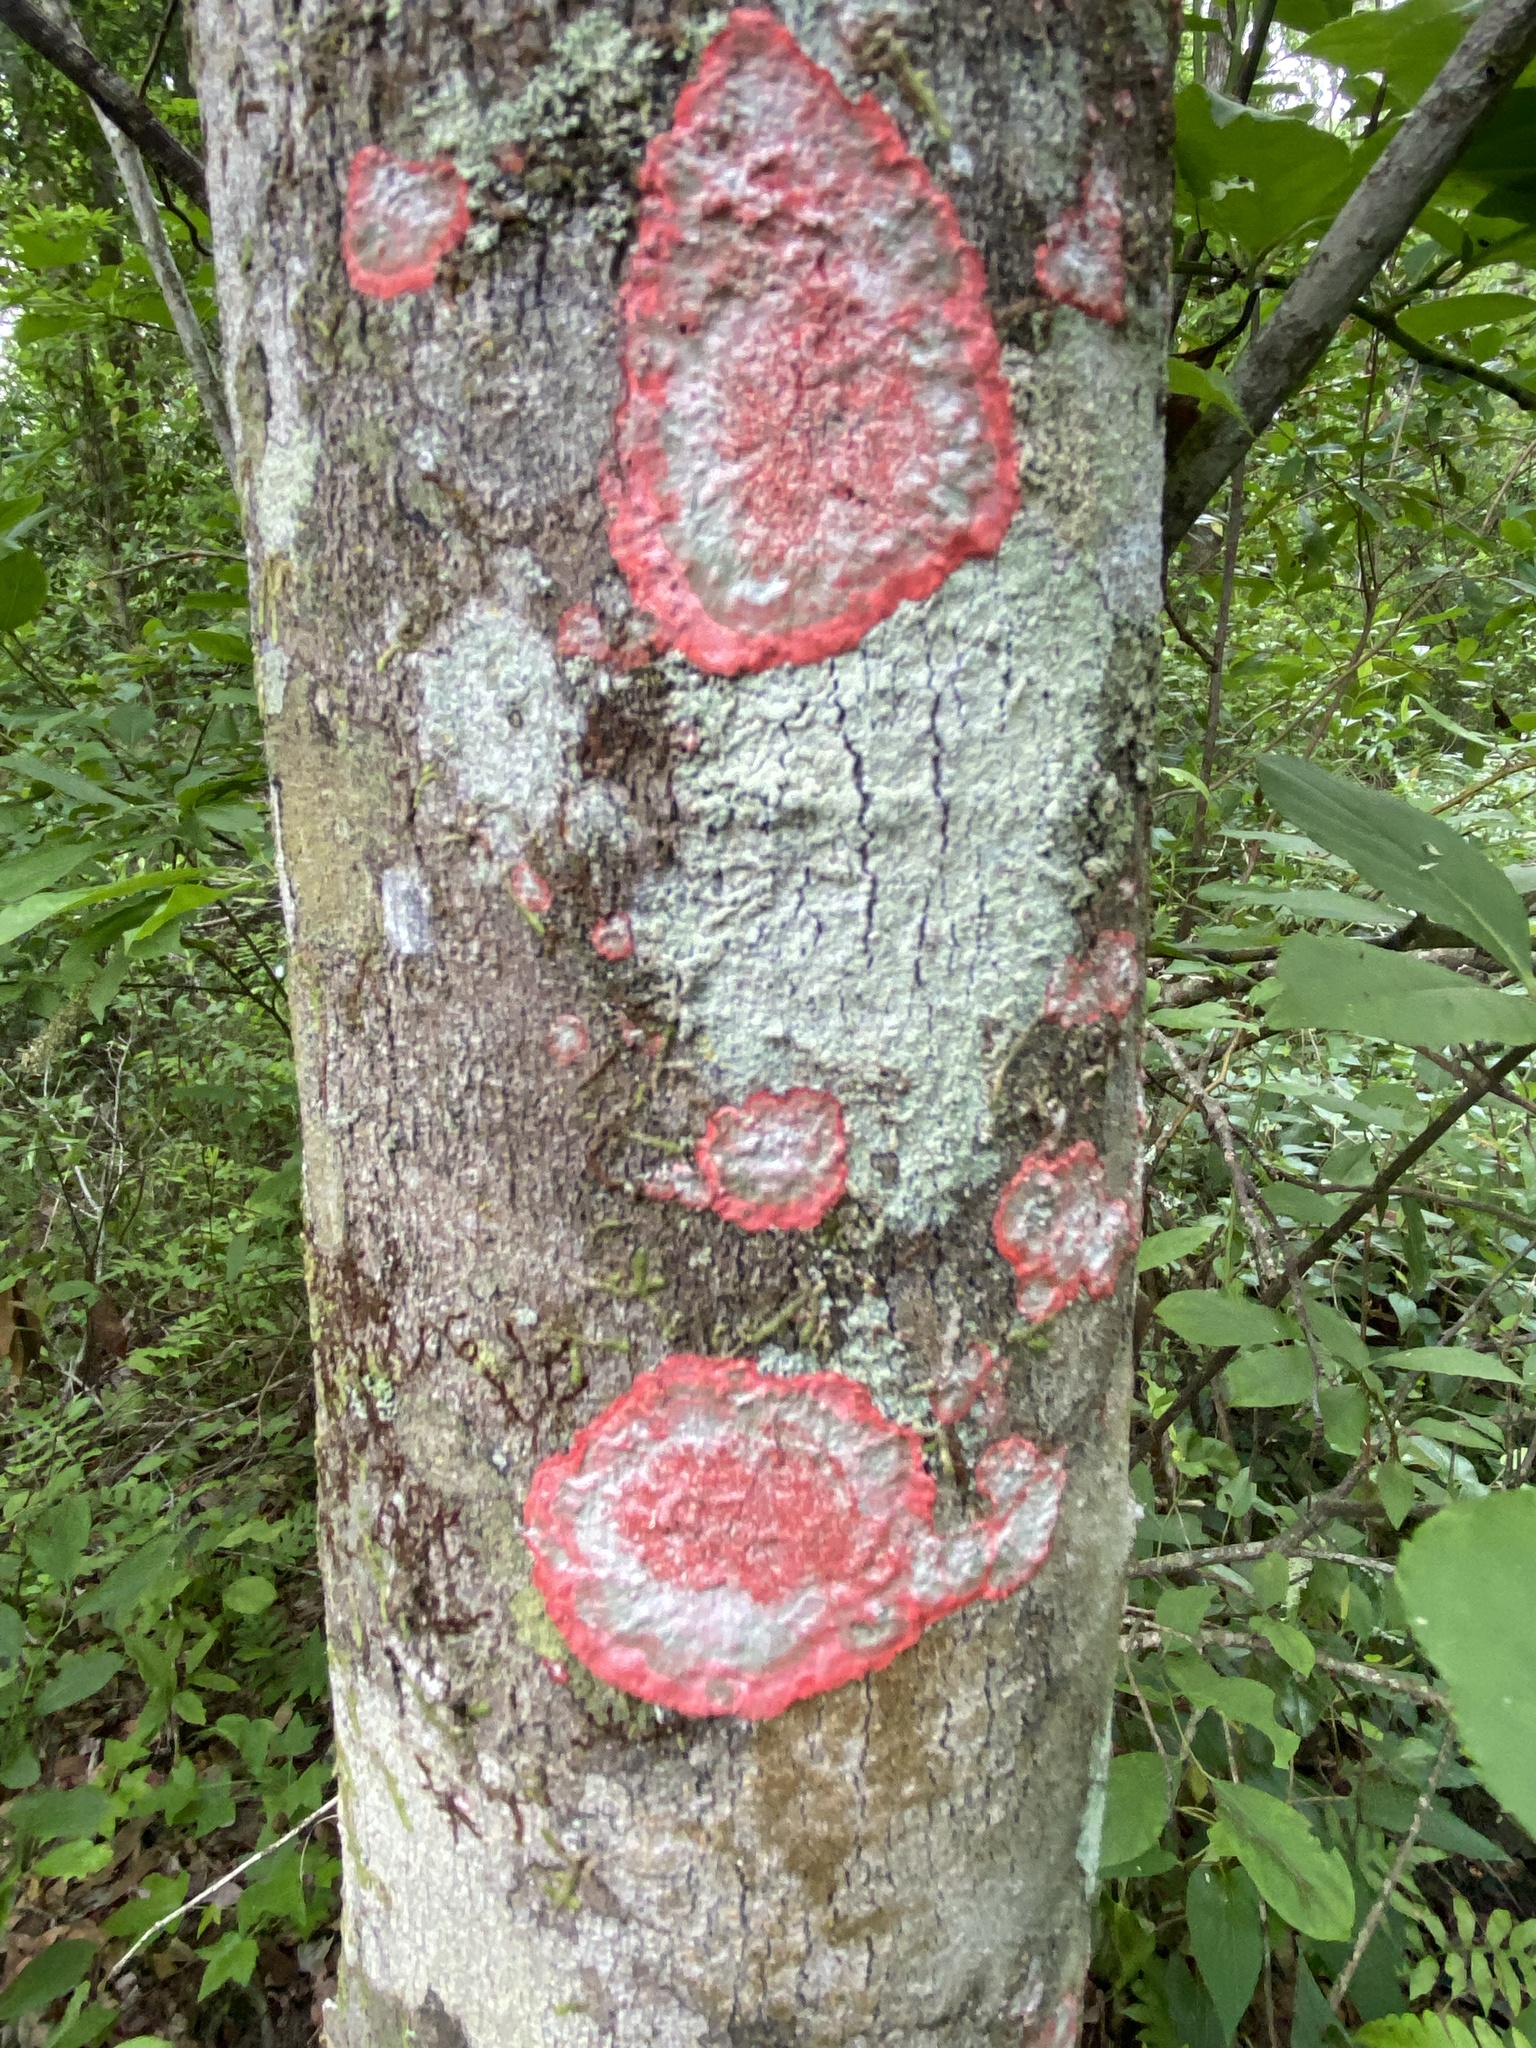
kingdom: Fungi
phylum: Ascomycota
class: Arthoniomycetes
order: Arthoniales
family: Arthoniaceae
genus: Herpothallon
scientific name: Herpothallon rubrocinctum
